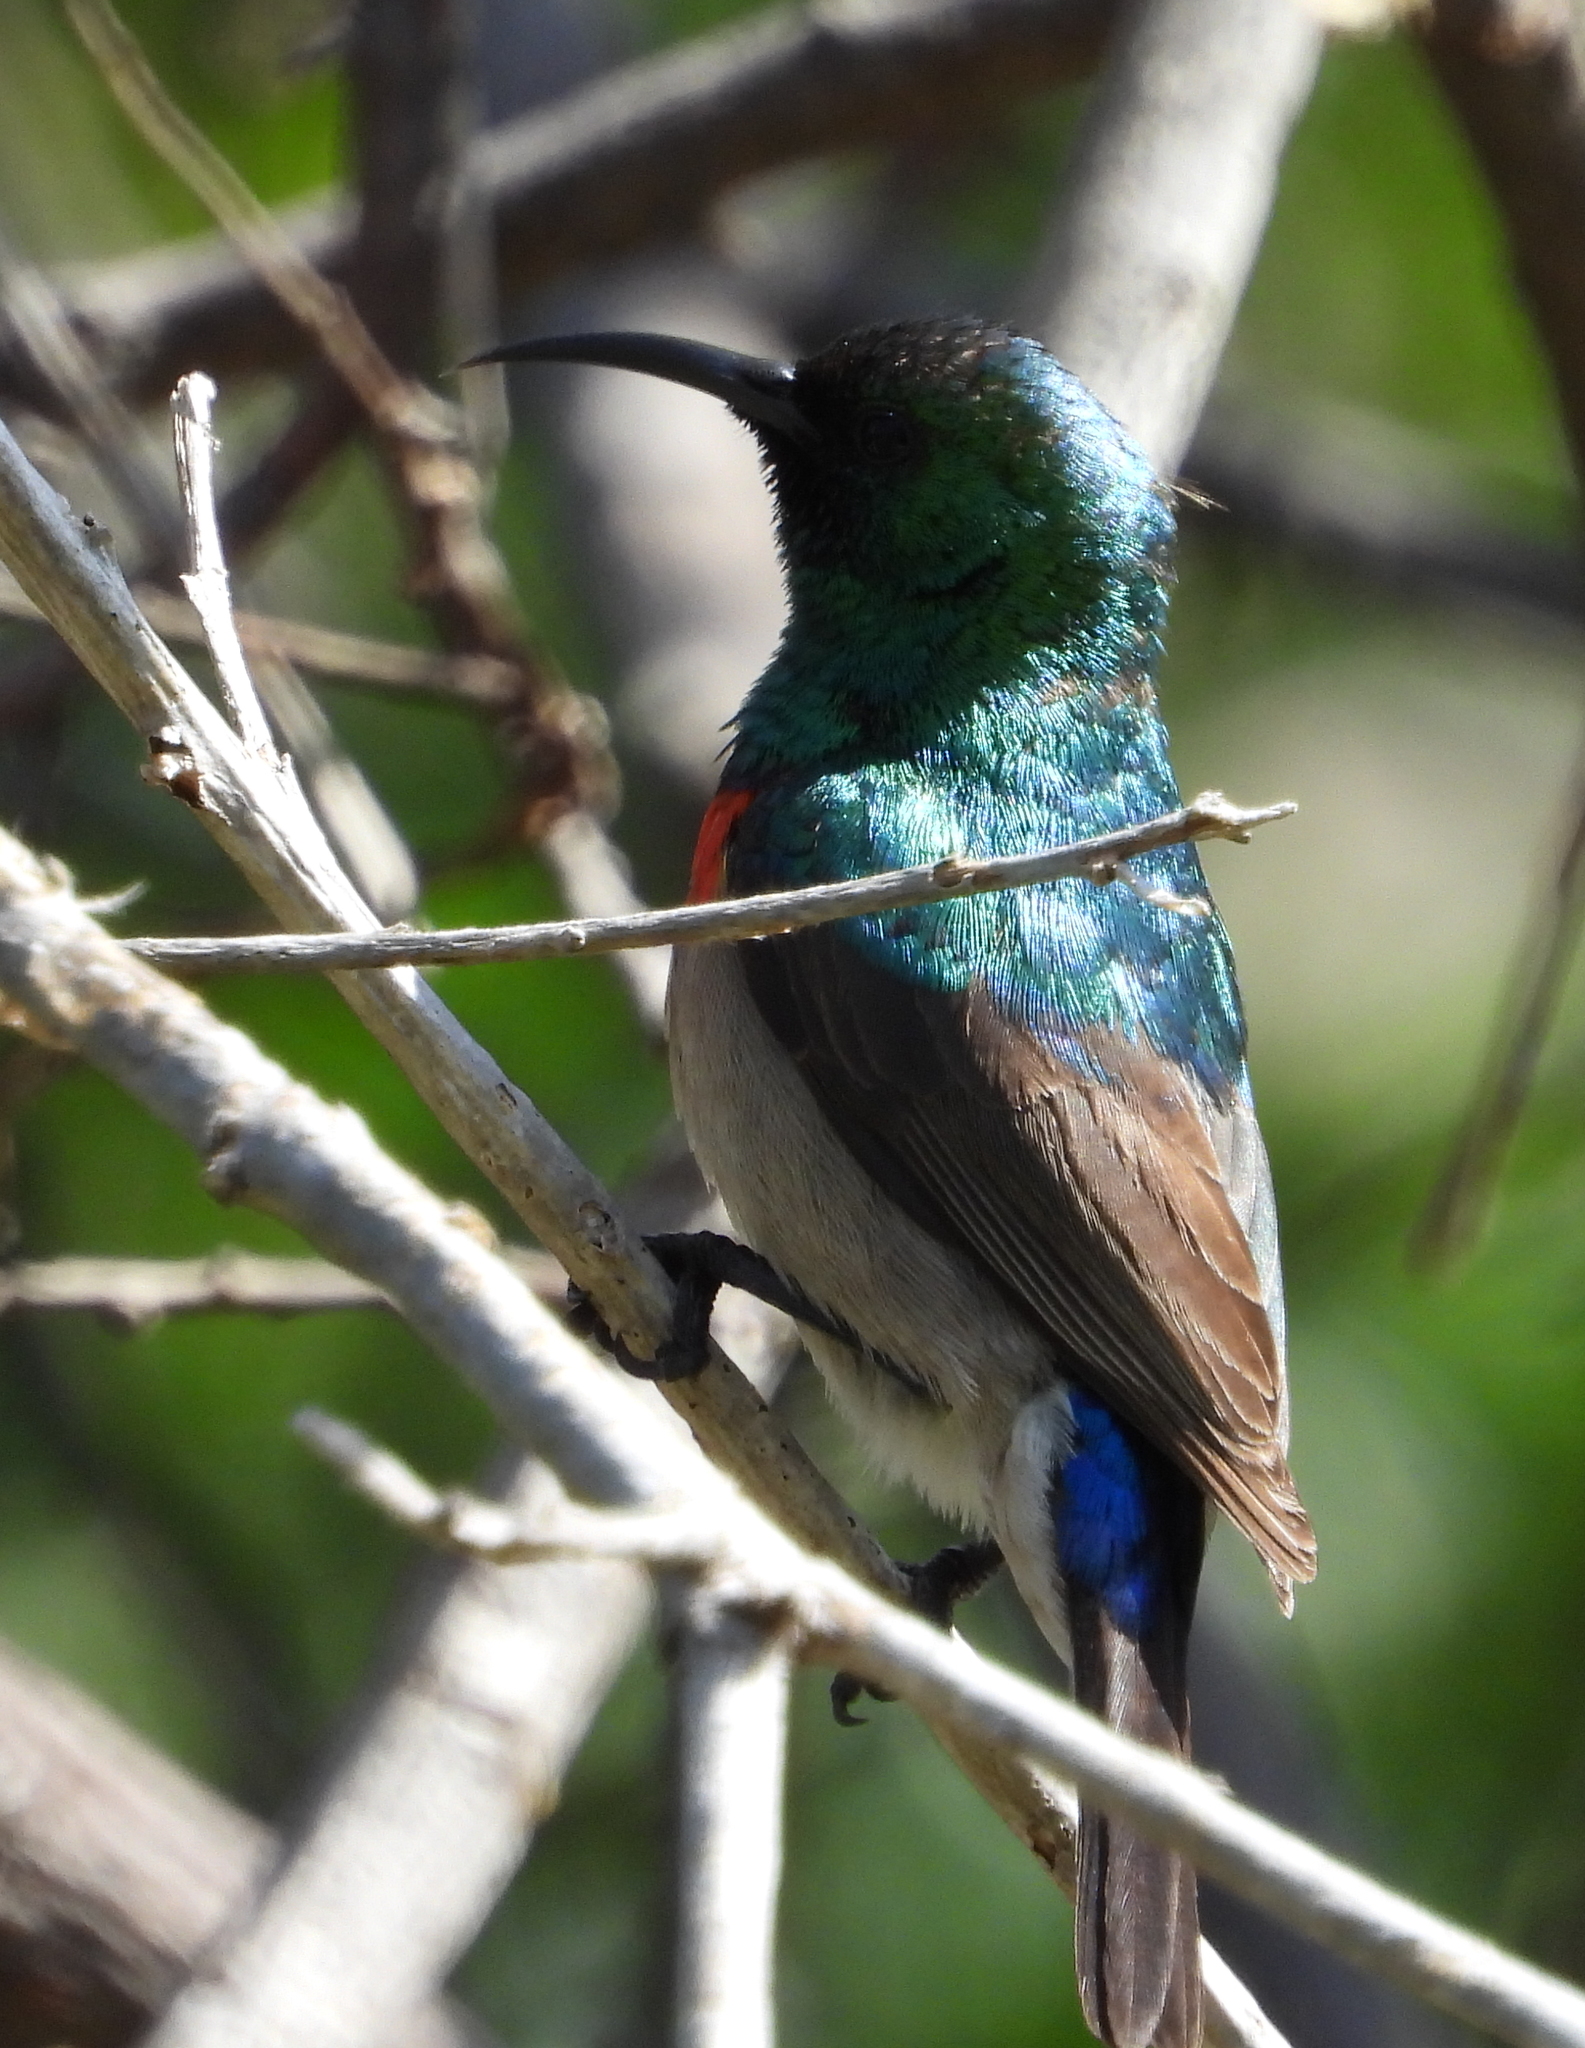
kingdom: Animalia
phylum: Chordata
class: Aves
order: Passeriformes
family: Nectariniidae
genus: Cinnyris
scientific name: Cinnyris chalybeus
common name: Southern double-collared sunbird
